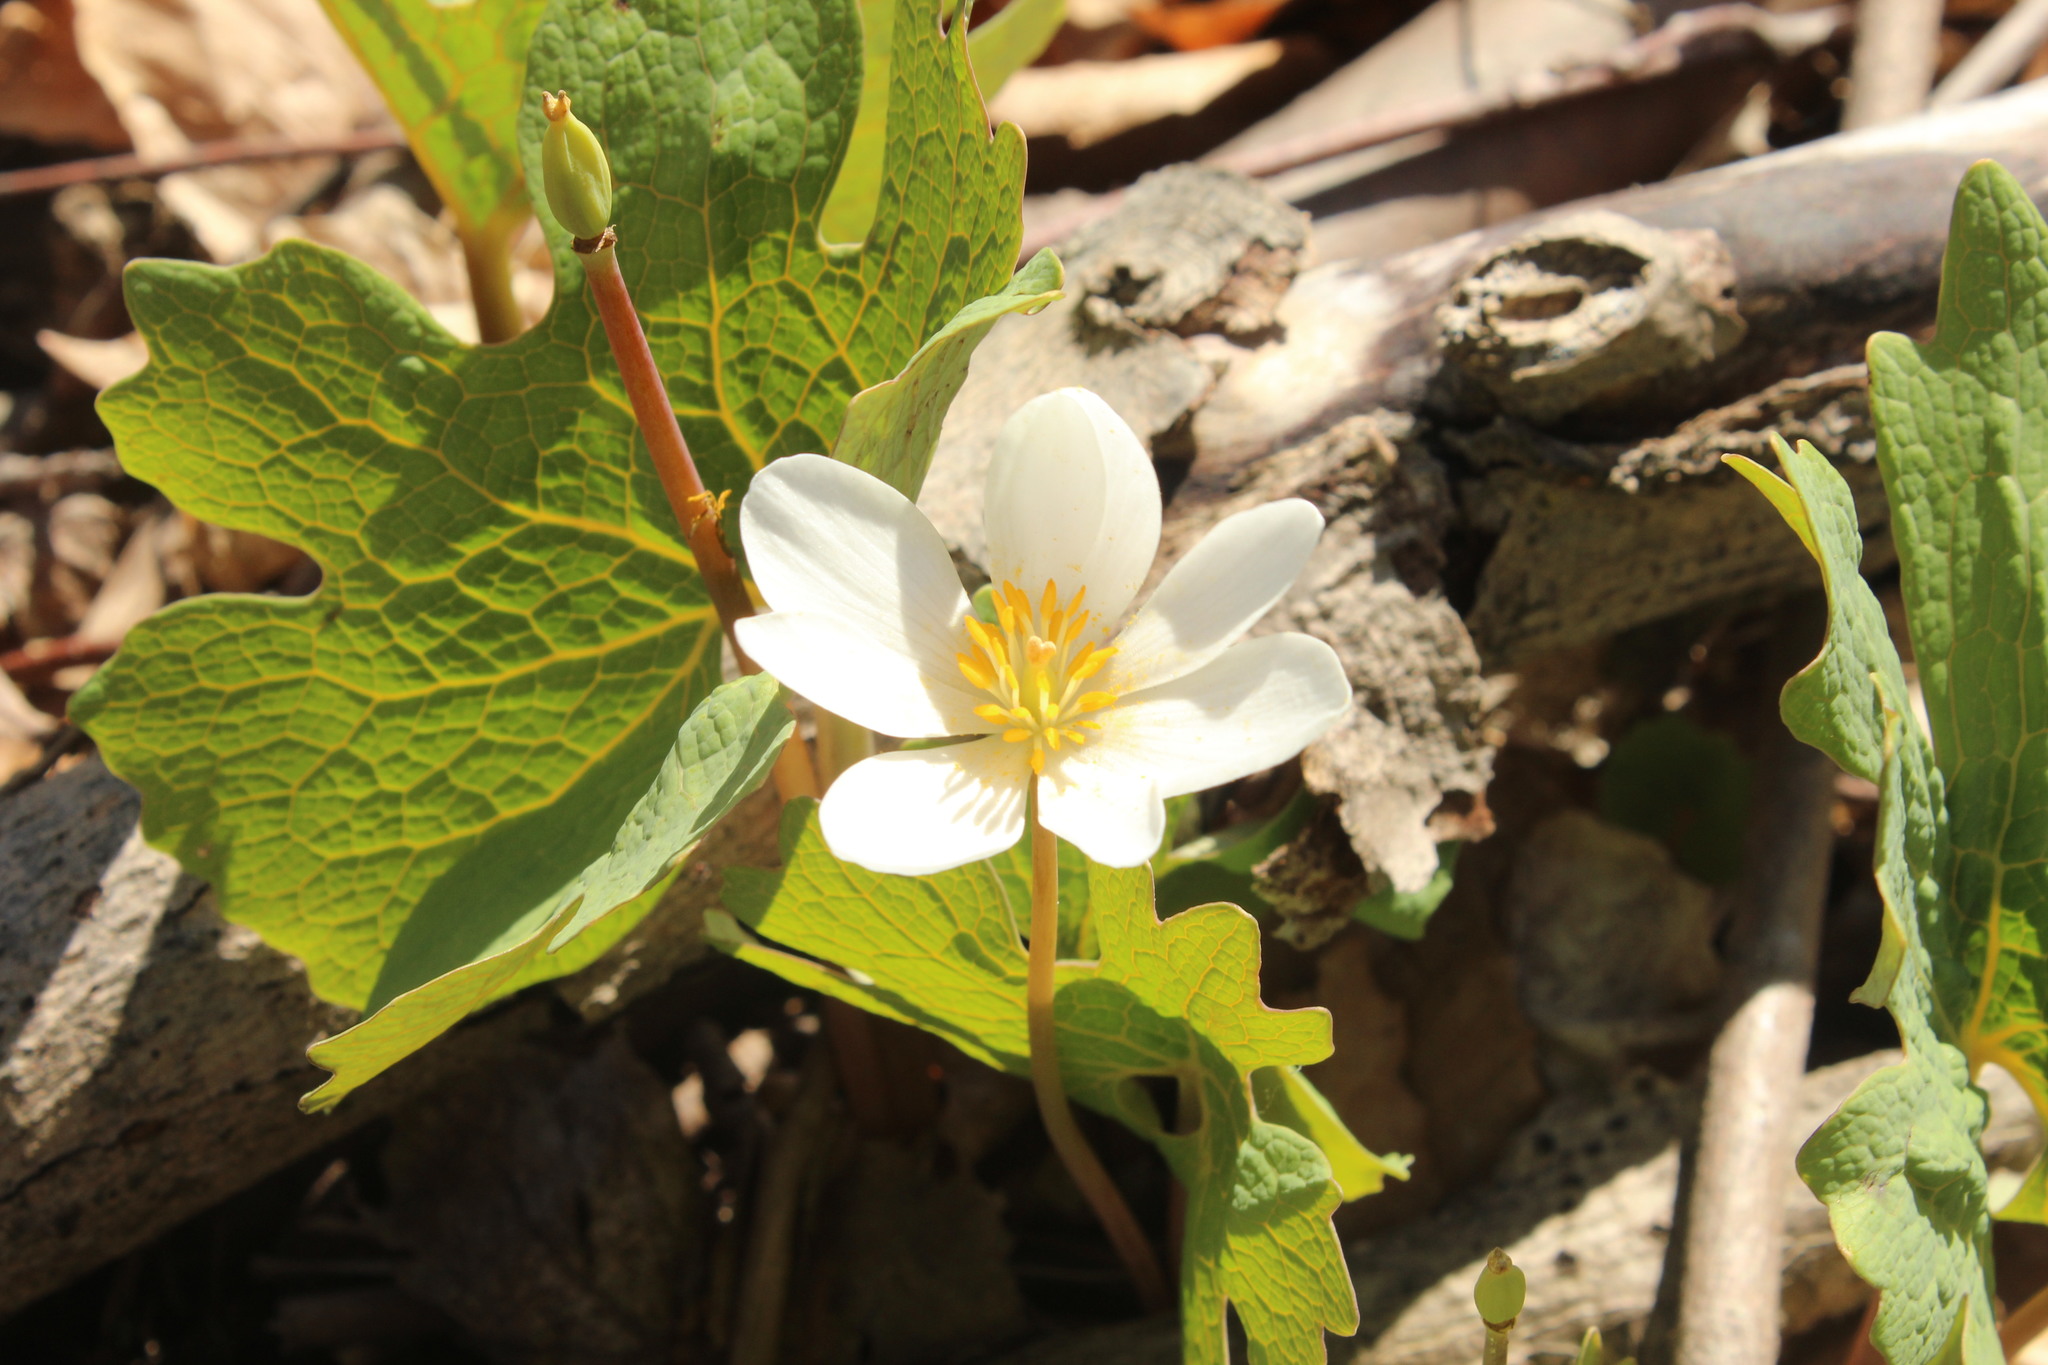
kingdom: Plantae
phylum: Tracheophyta
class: Magnoliopsida
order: Ranunculales
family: Papaveraceae
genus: Sanguinaria
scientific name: Sanguinaria canadensis
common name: Bloodroot
